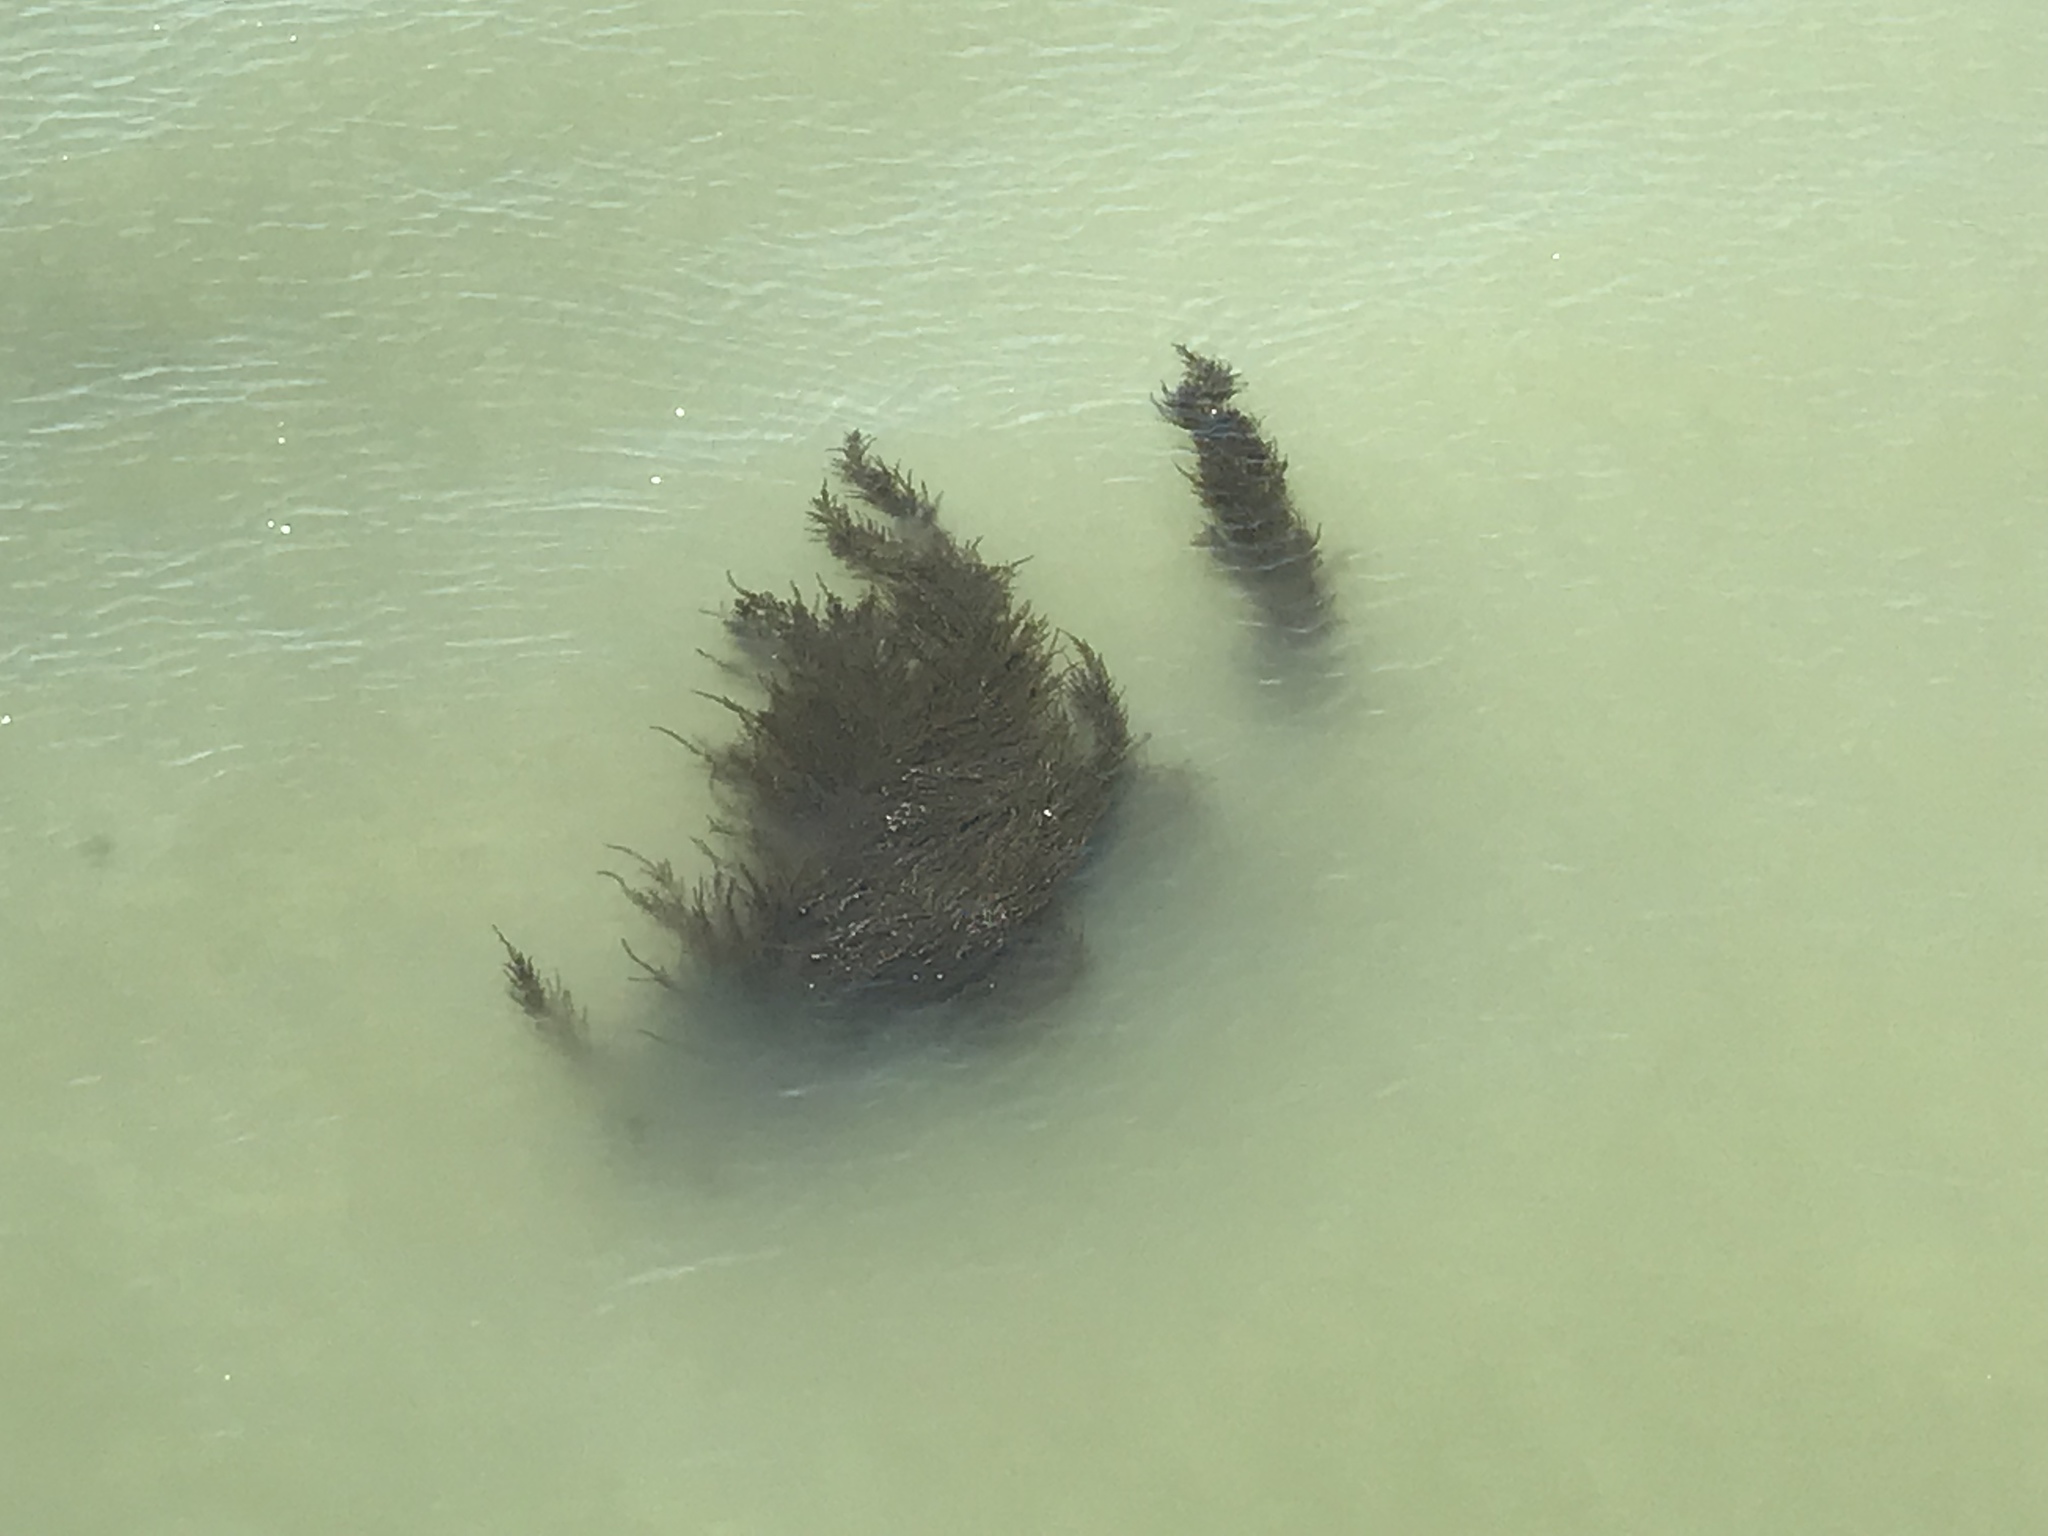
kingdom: Chromista
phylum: Ochrophyta
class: Phaeophyceae
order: Fucales
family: Sargassaceae
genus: Sargassum
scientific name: Sargassum muticum
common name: Japweed
